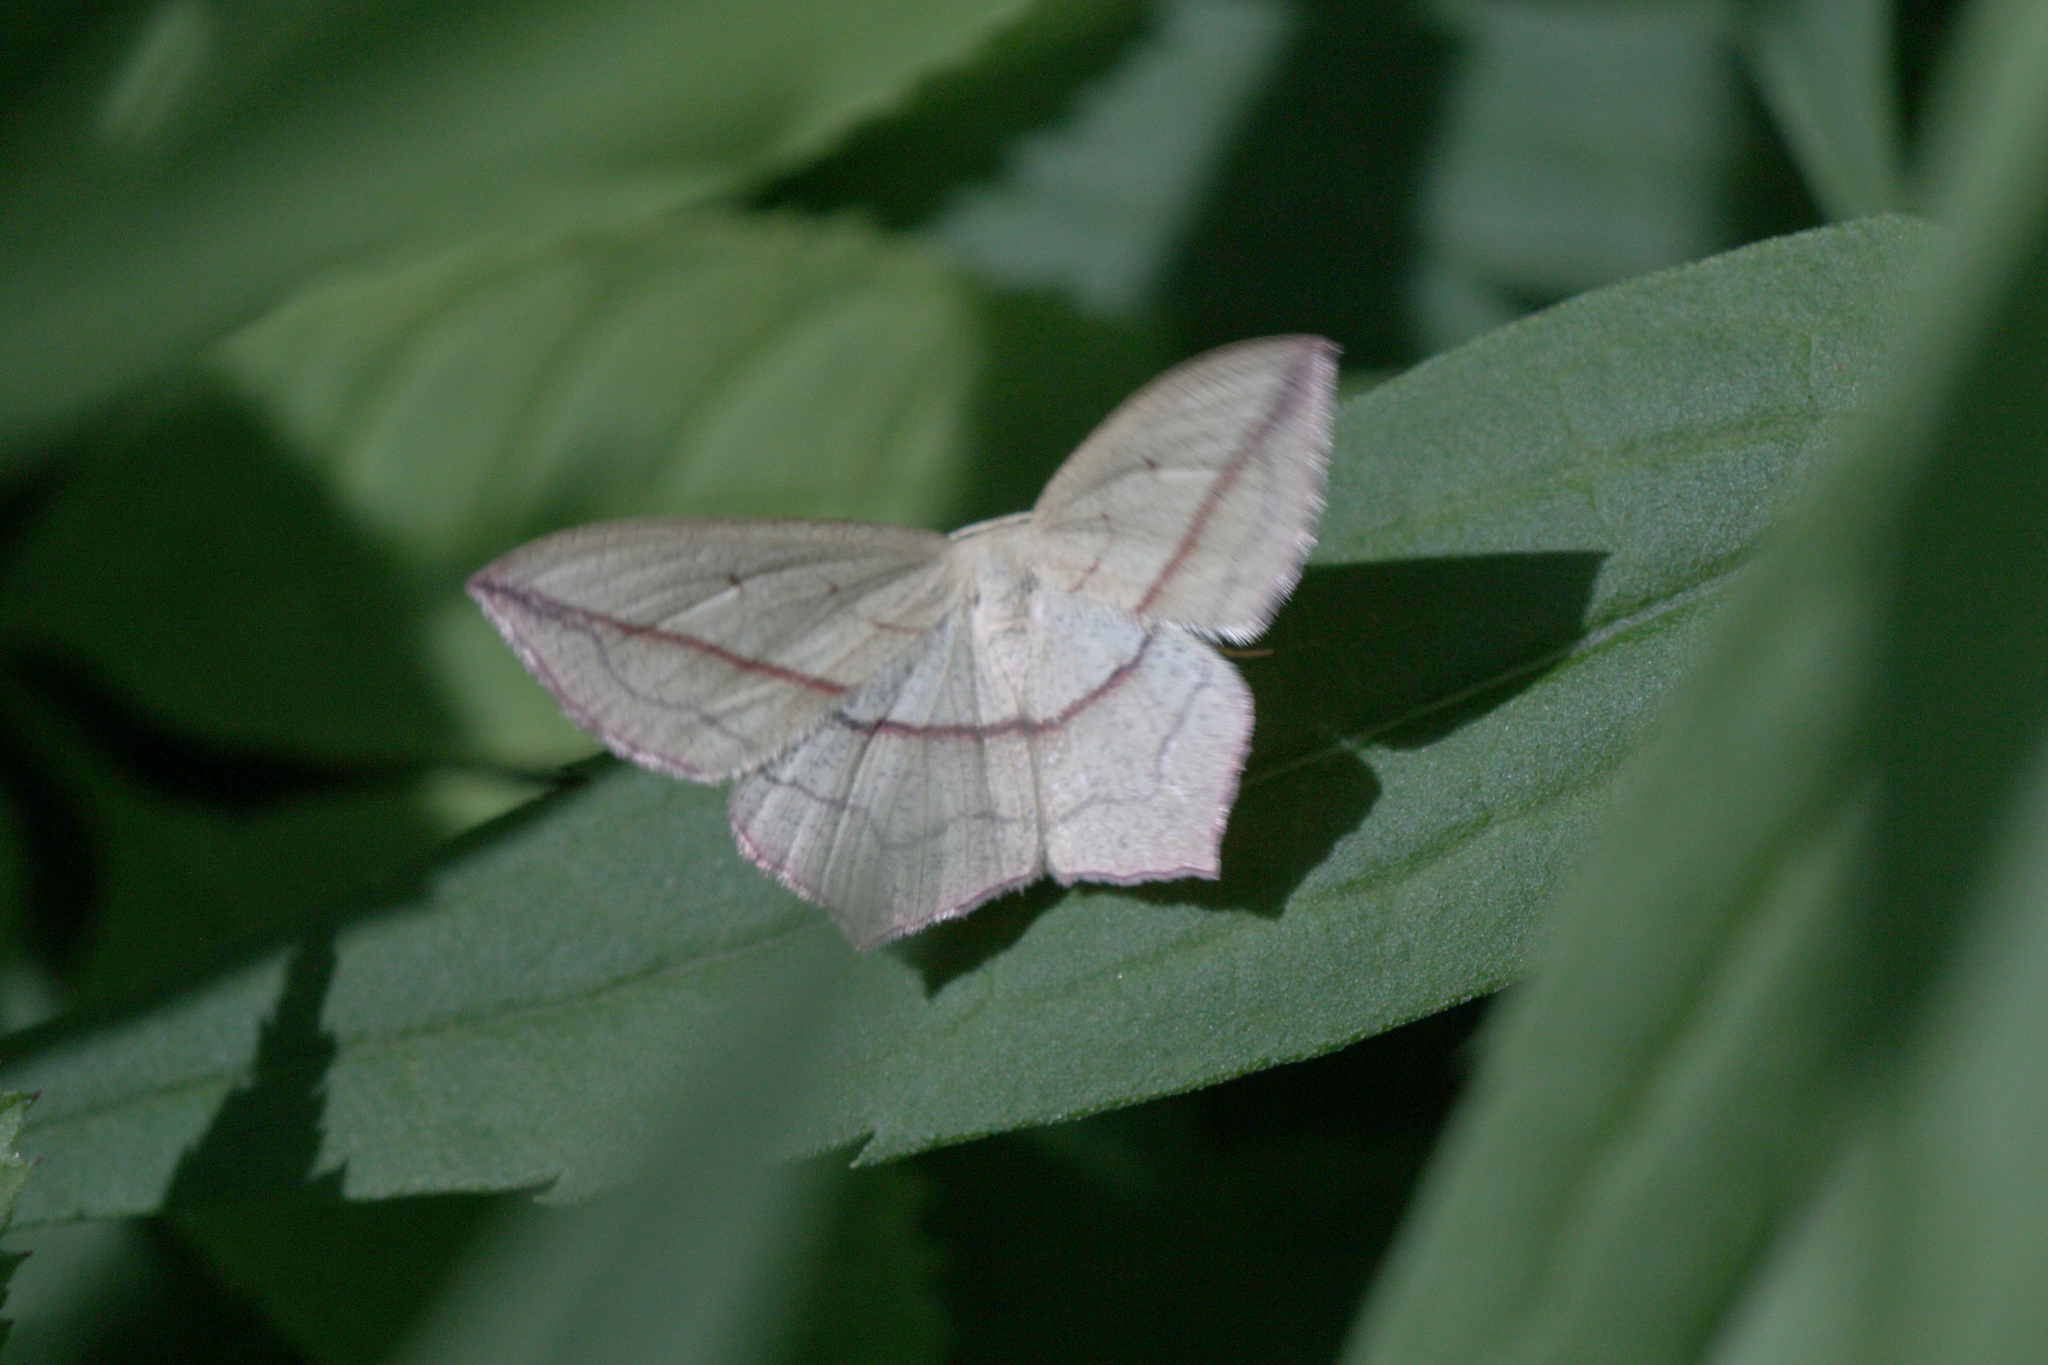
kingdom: Animalia
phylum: Arthropoda
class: Insecta
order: Lepidoptera
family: Geometridae
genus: Timandra
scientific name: Timandra comae
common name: Blood-vein
